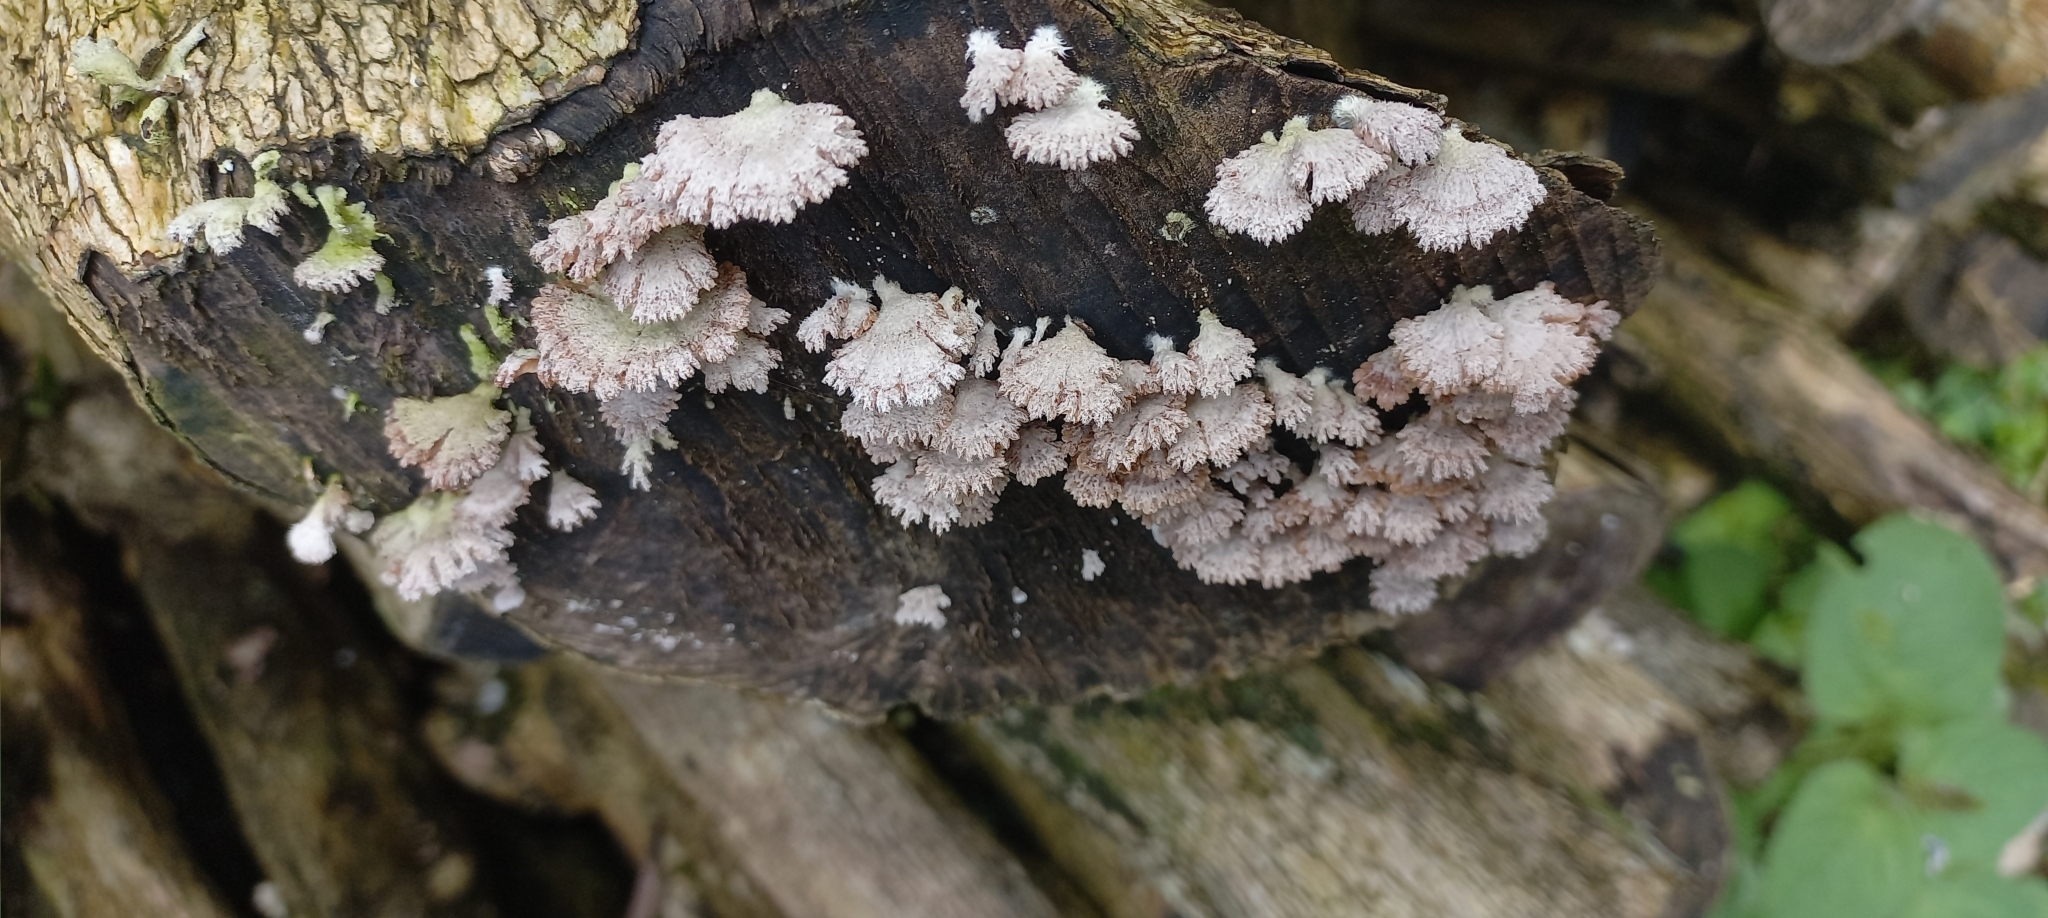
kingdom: Fungi
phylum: Basidiomycota
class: Agaricomycetes
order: Agaricales
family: Schizophyllaceae
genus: Schizophyllum
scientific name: Schizophyllum commune
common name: Common porecrust
